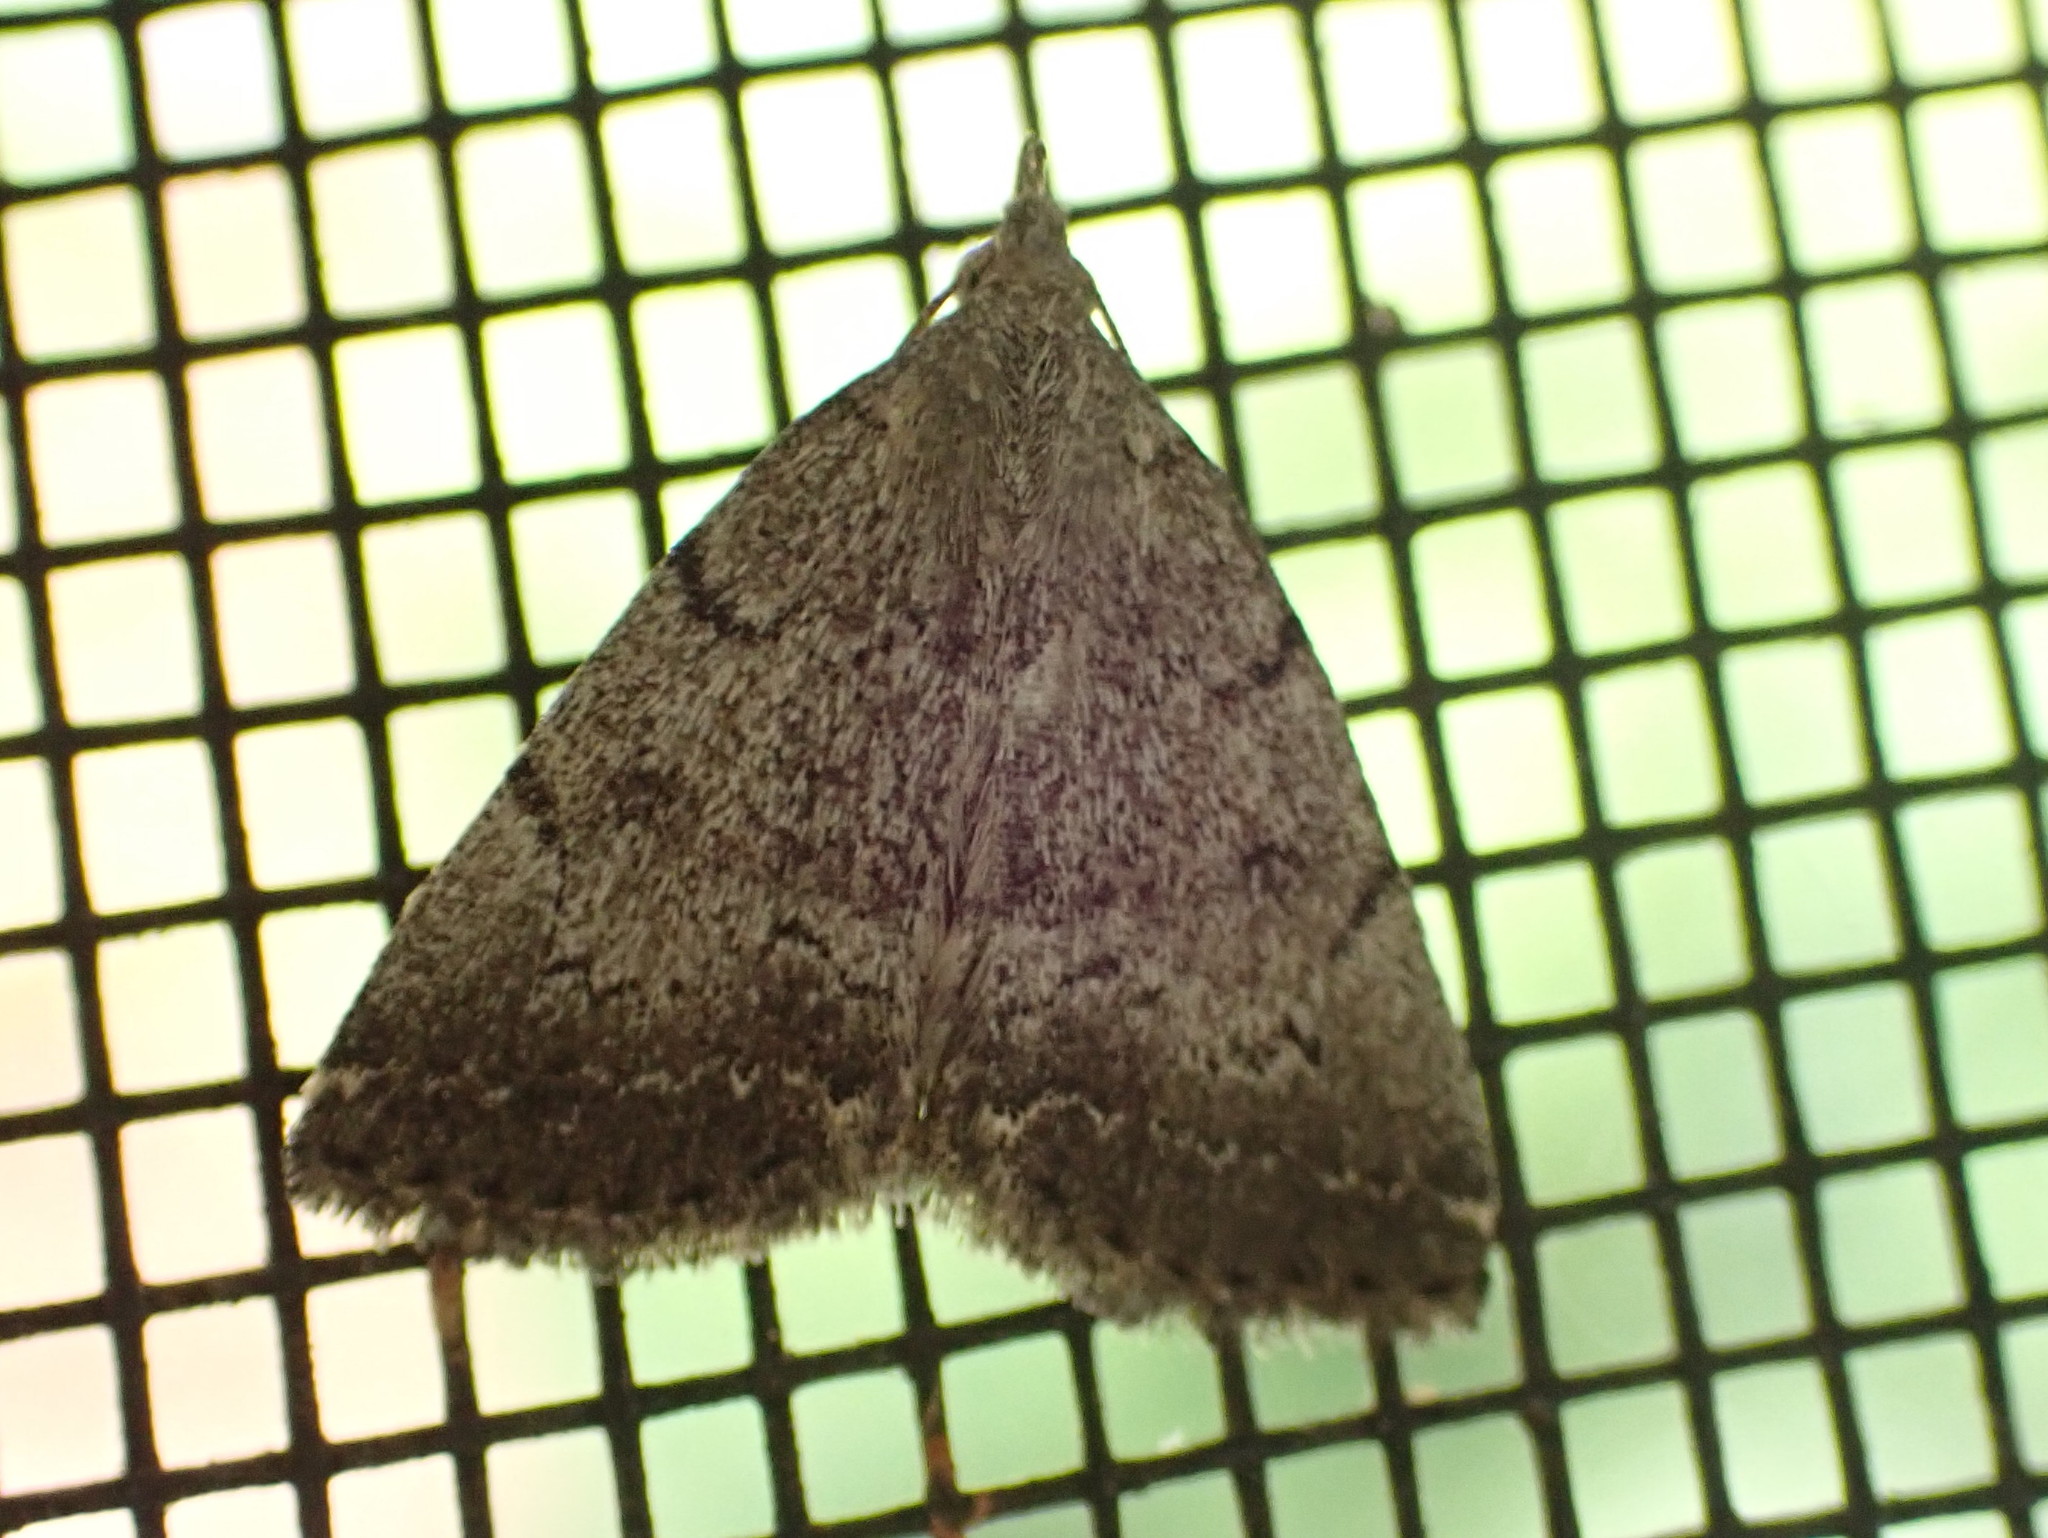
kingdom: Animalia
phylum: Arthropoda
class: Insecta
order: Lepidoptera
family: Erebidae
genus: Zanclognatha
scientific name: Zanclognatha theralis
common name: Flagged fan-foot
